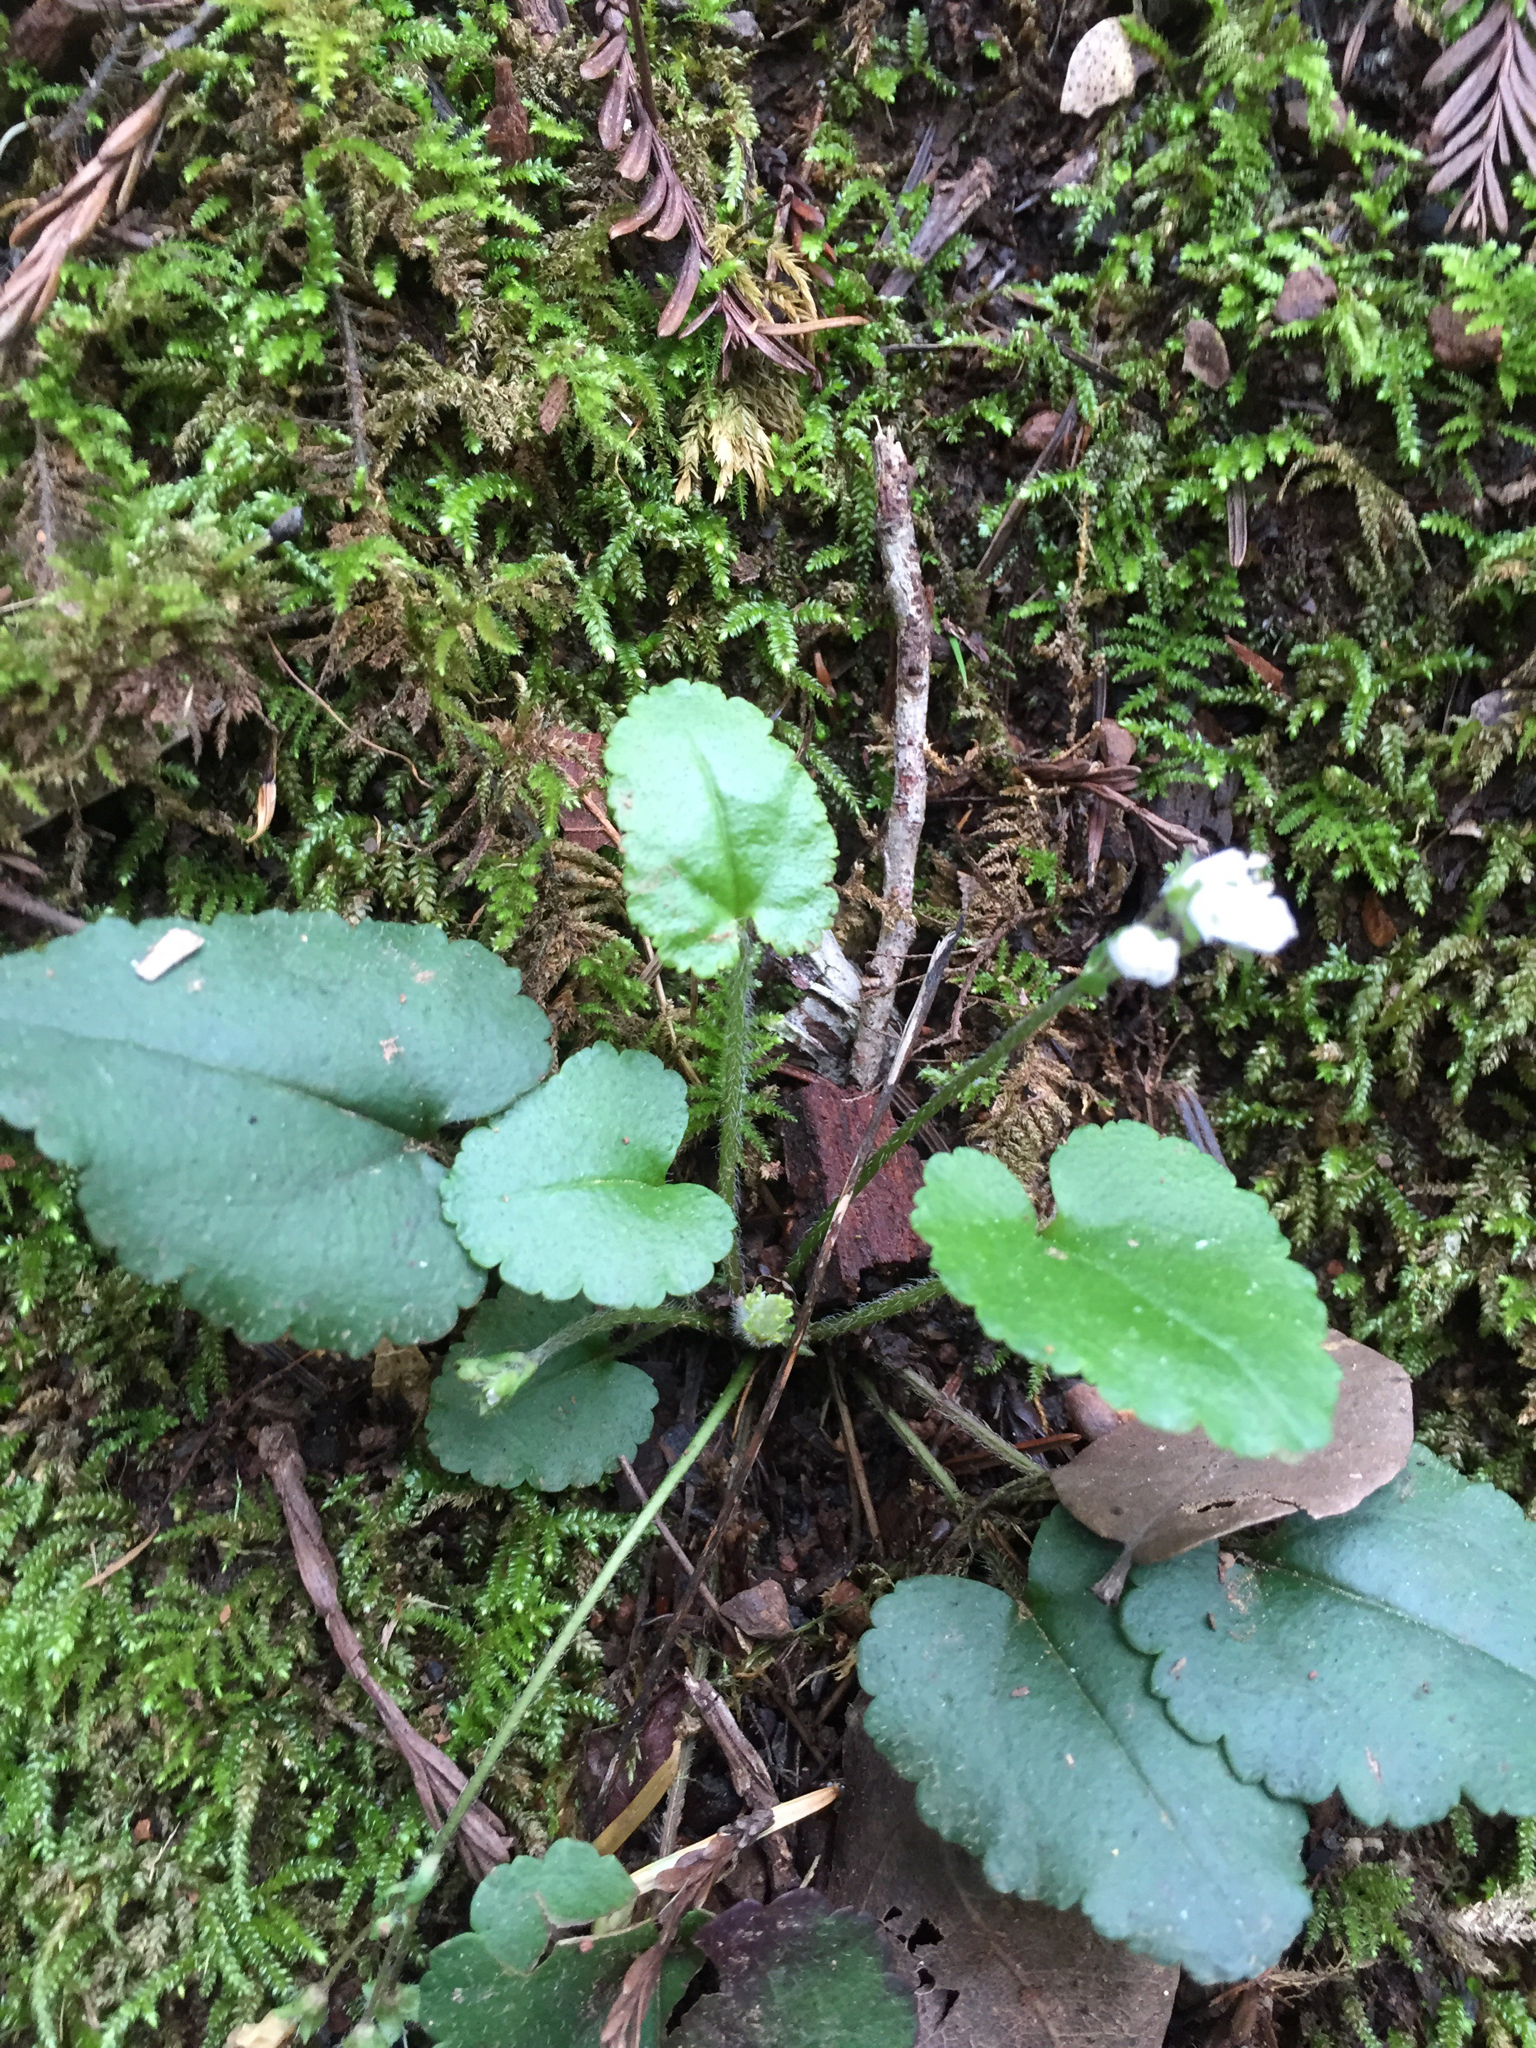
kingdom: Plantae
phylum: Tracheophyta
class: Magnoliopsida
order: Lamiales
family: Plantaginaceae
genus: Synthyris
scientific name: Synthyris cordata
